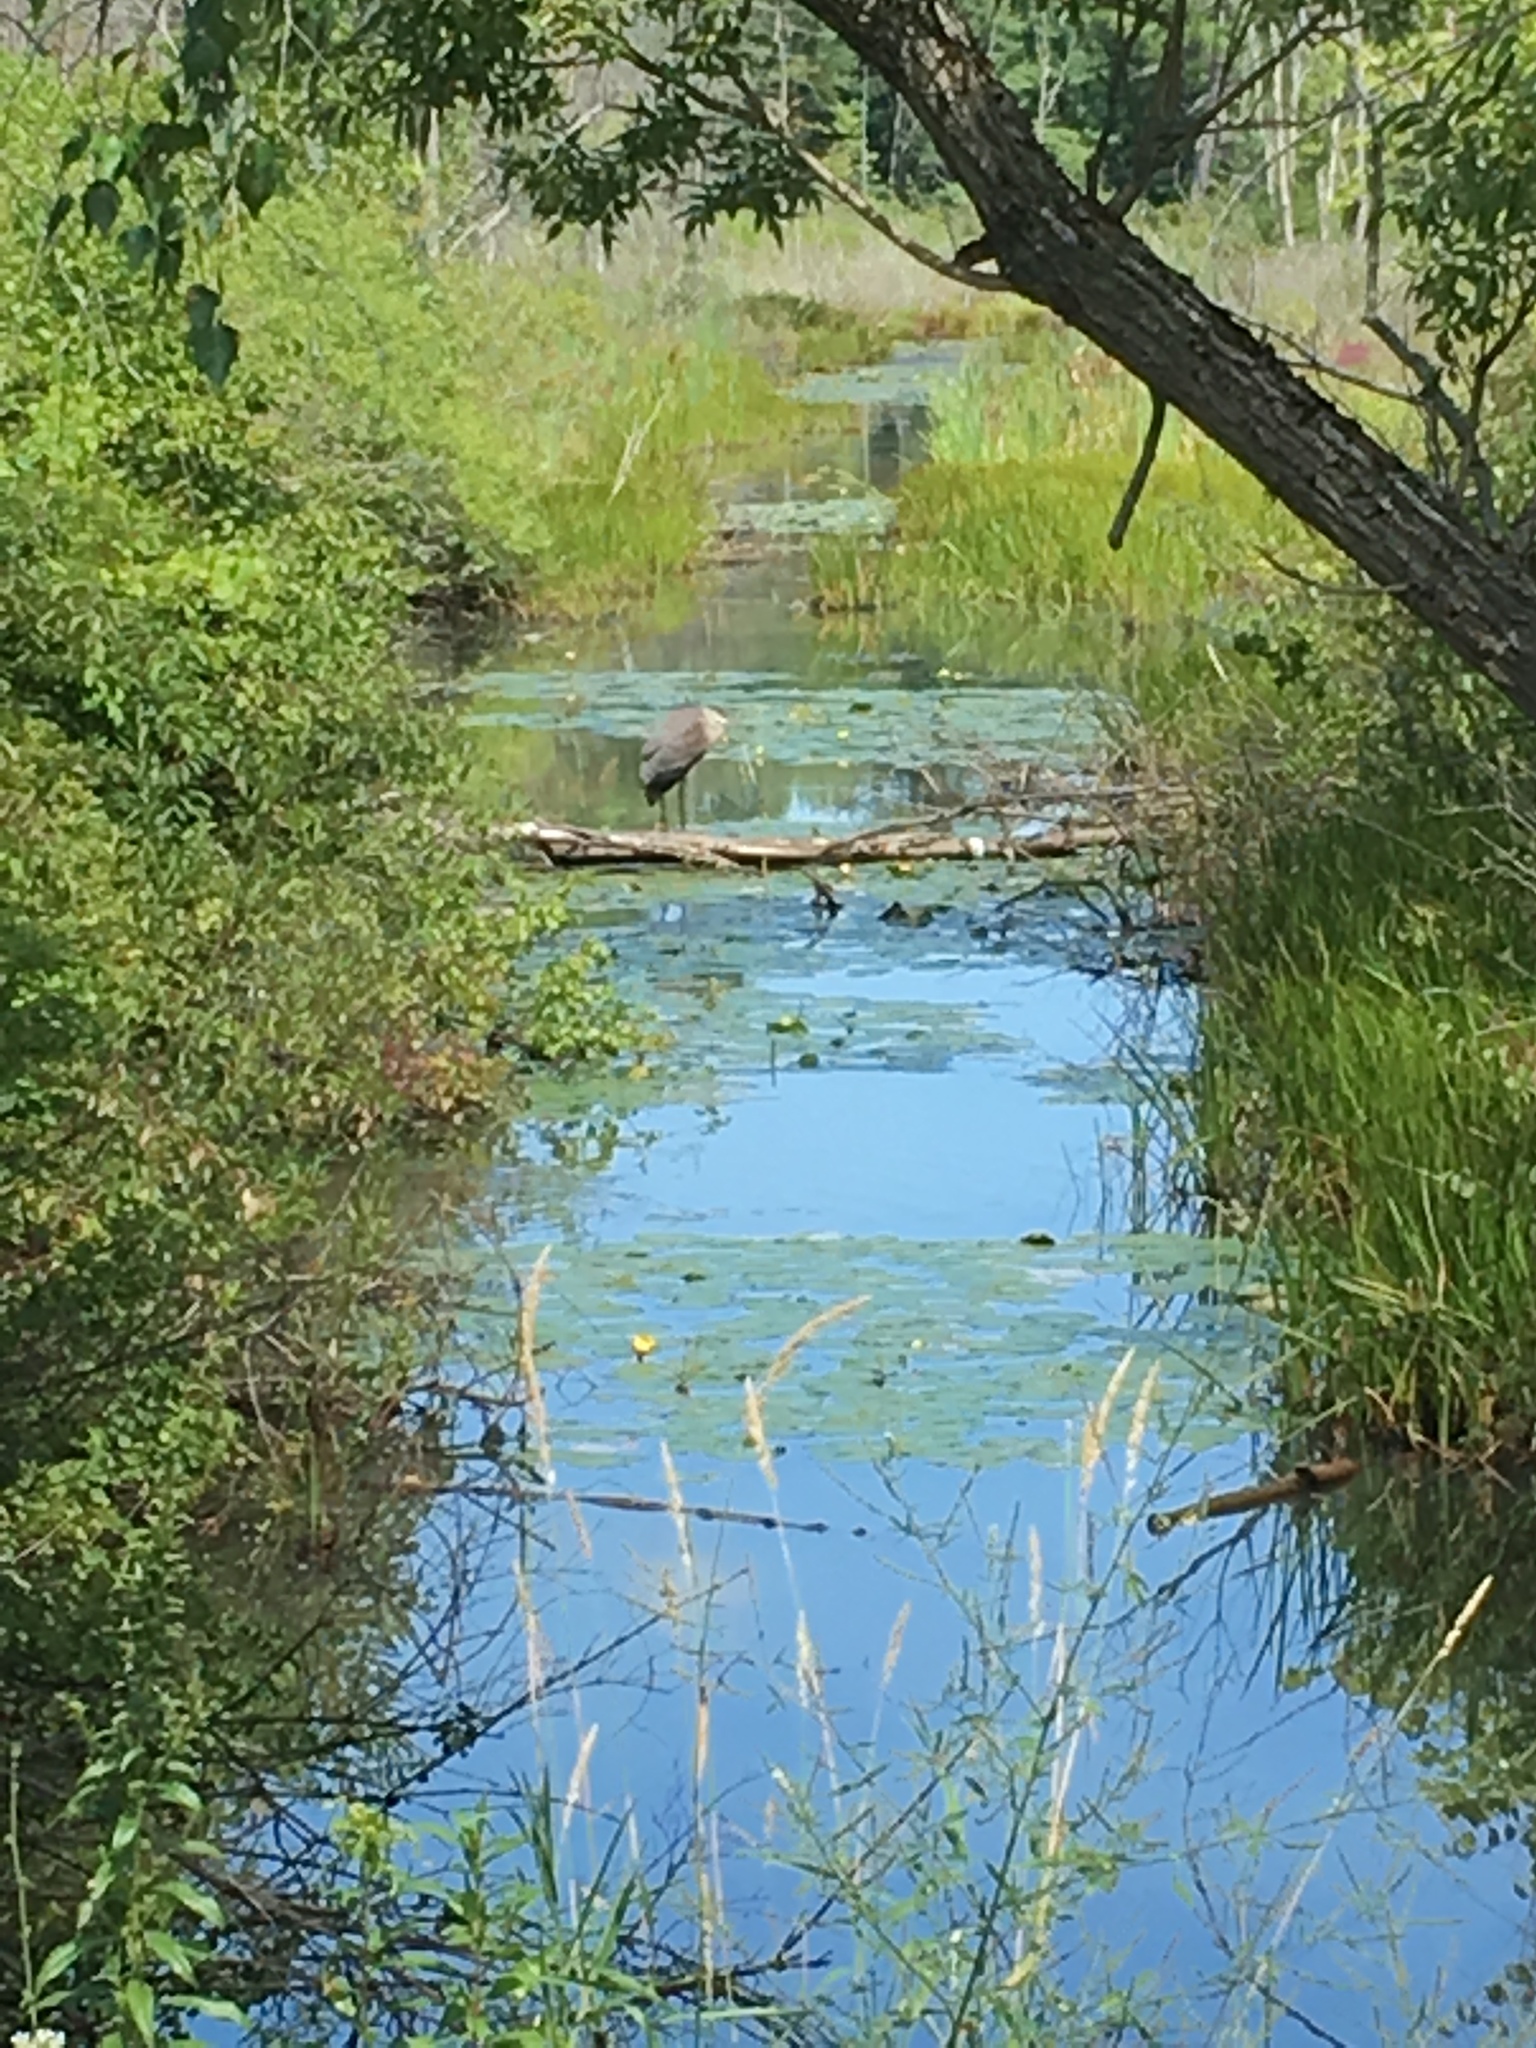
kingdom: Animalia
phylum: Chordata
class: Aves
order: Pelecaniformes
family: Ardeidae
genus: Ardea
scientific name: Ardea herodias
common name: Great blue heron
